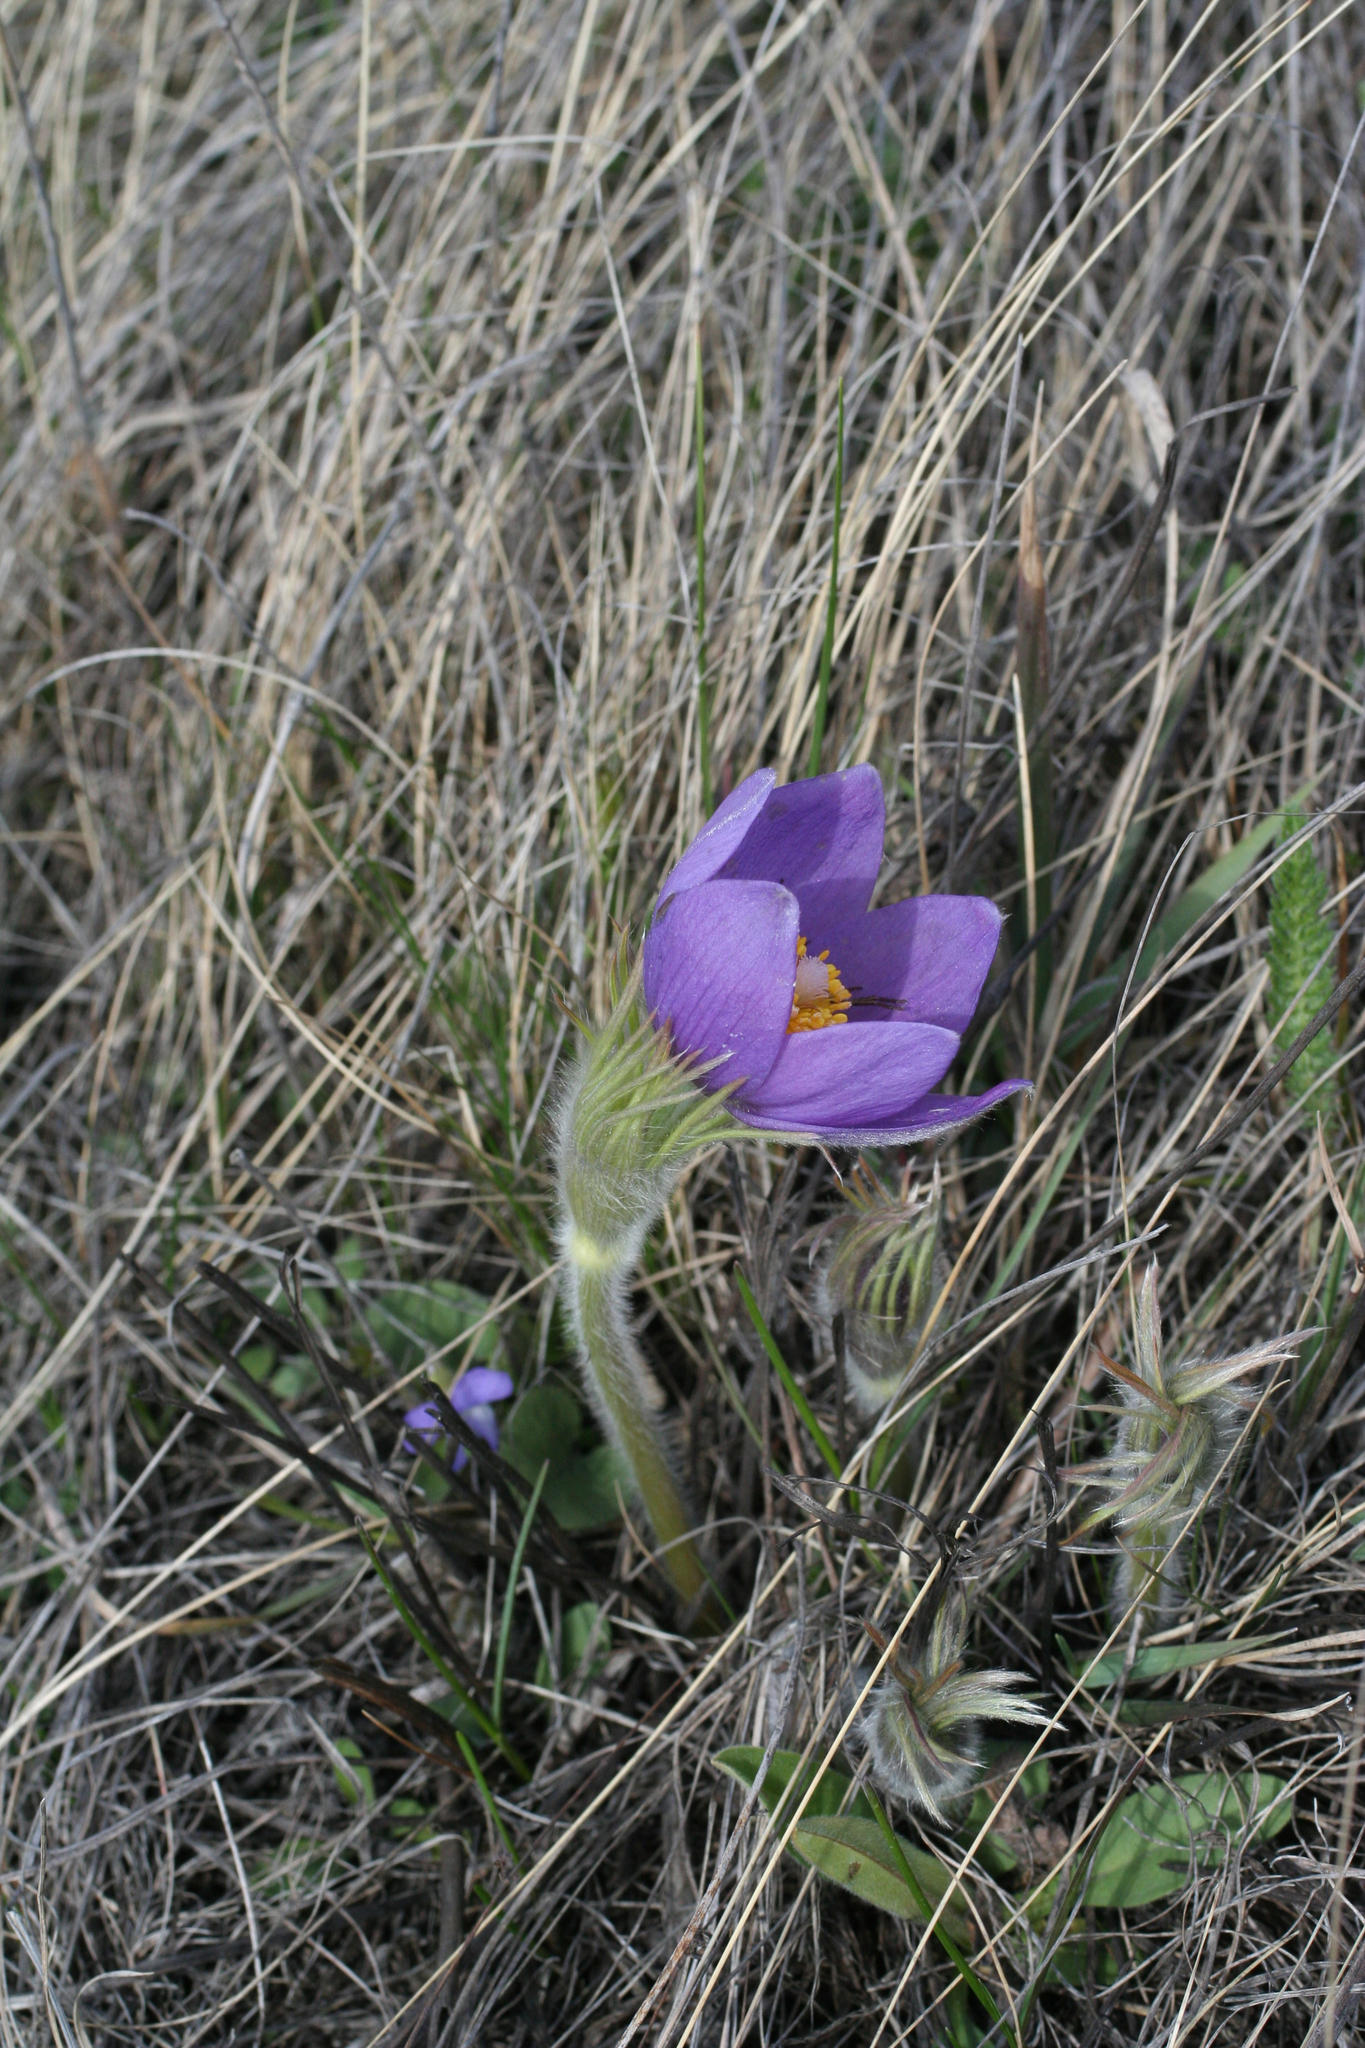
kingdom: Plantae
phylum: Tracheophyta
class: Magnoliopsida
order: Ranunculales
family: Ranunculaceae
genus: Pulsatilla
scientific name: Pulsatilla patens
